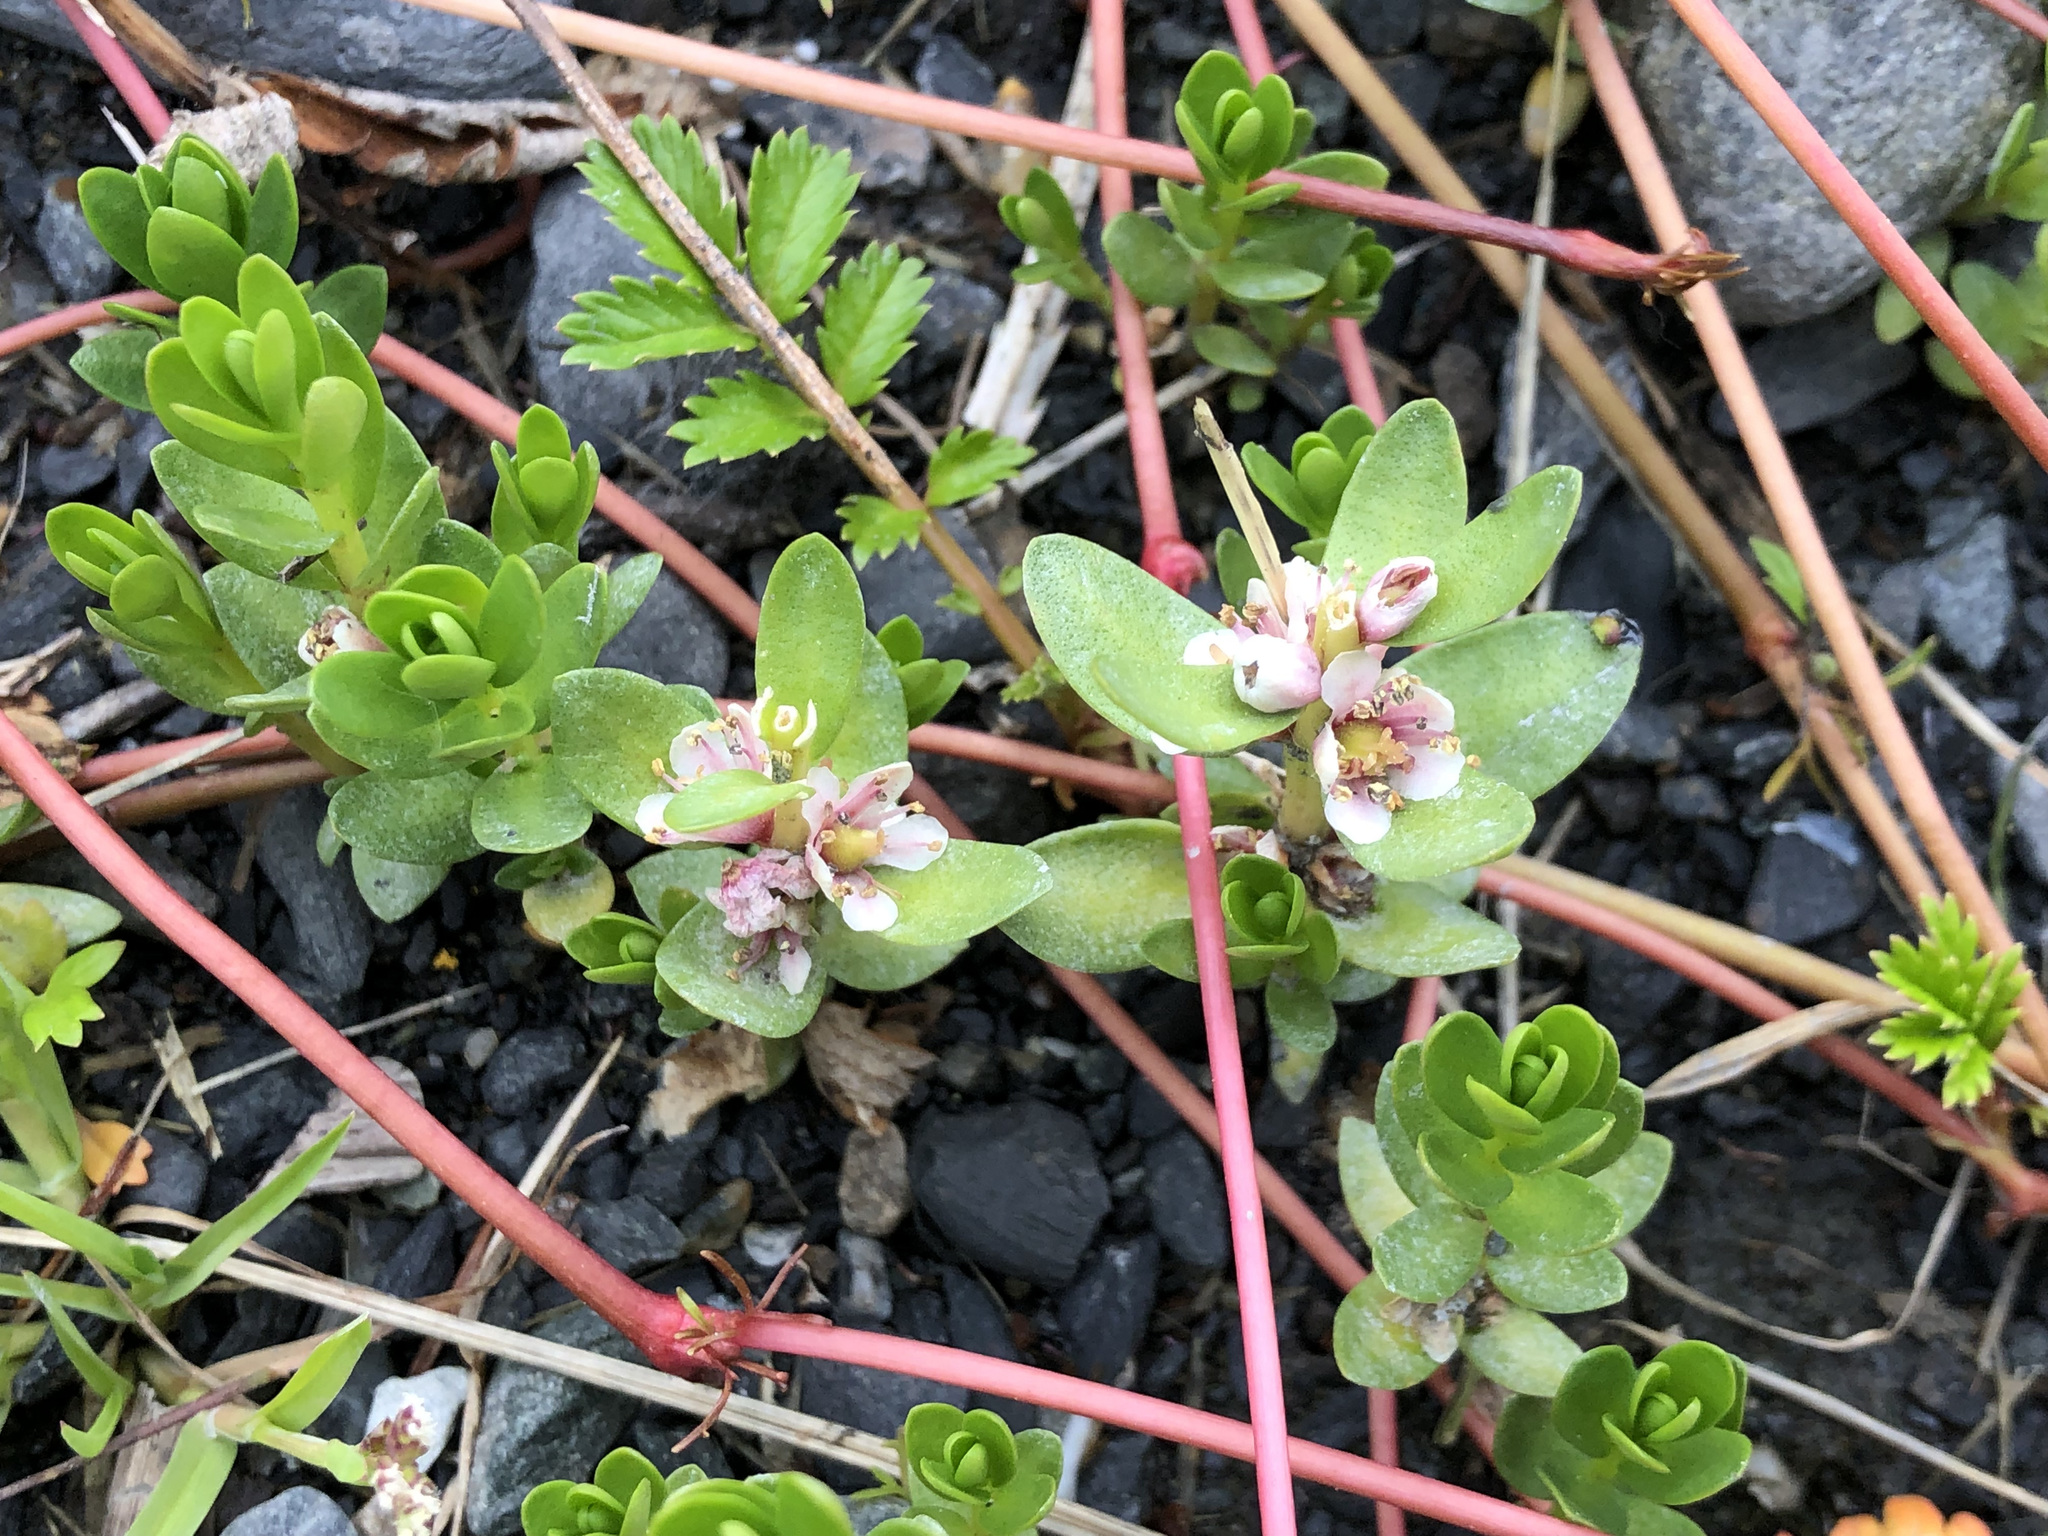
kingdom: Plantae
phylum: Tracheophyta
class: Magnoliopsida
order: Ericales
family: Primulaceae
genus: Lysimachia
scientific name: Lysimachia maritima
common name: Sea milkwort
